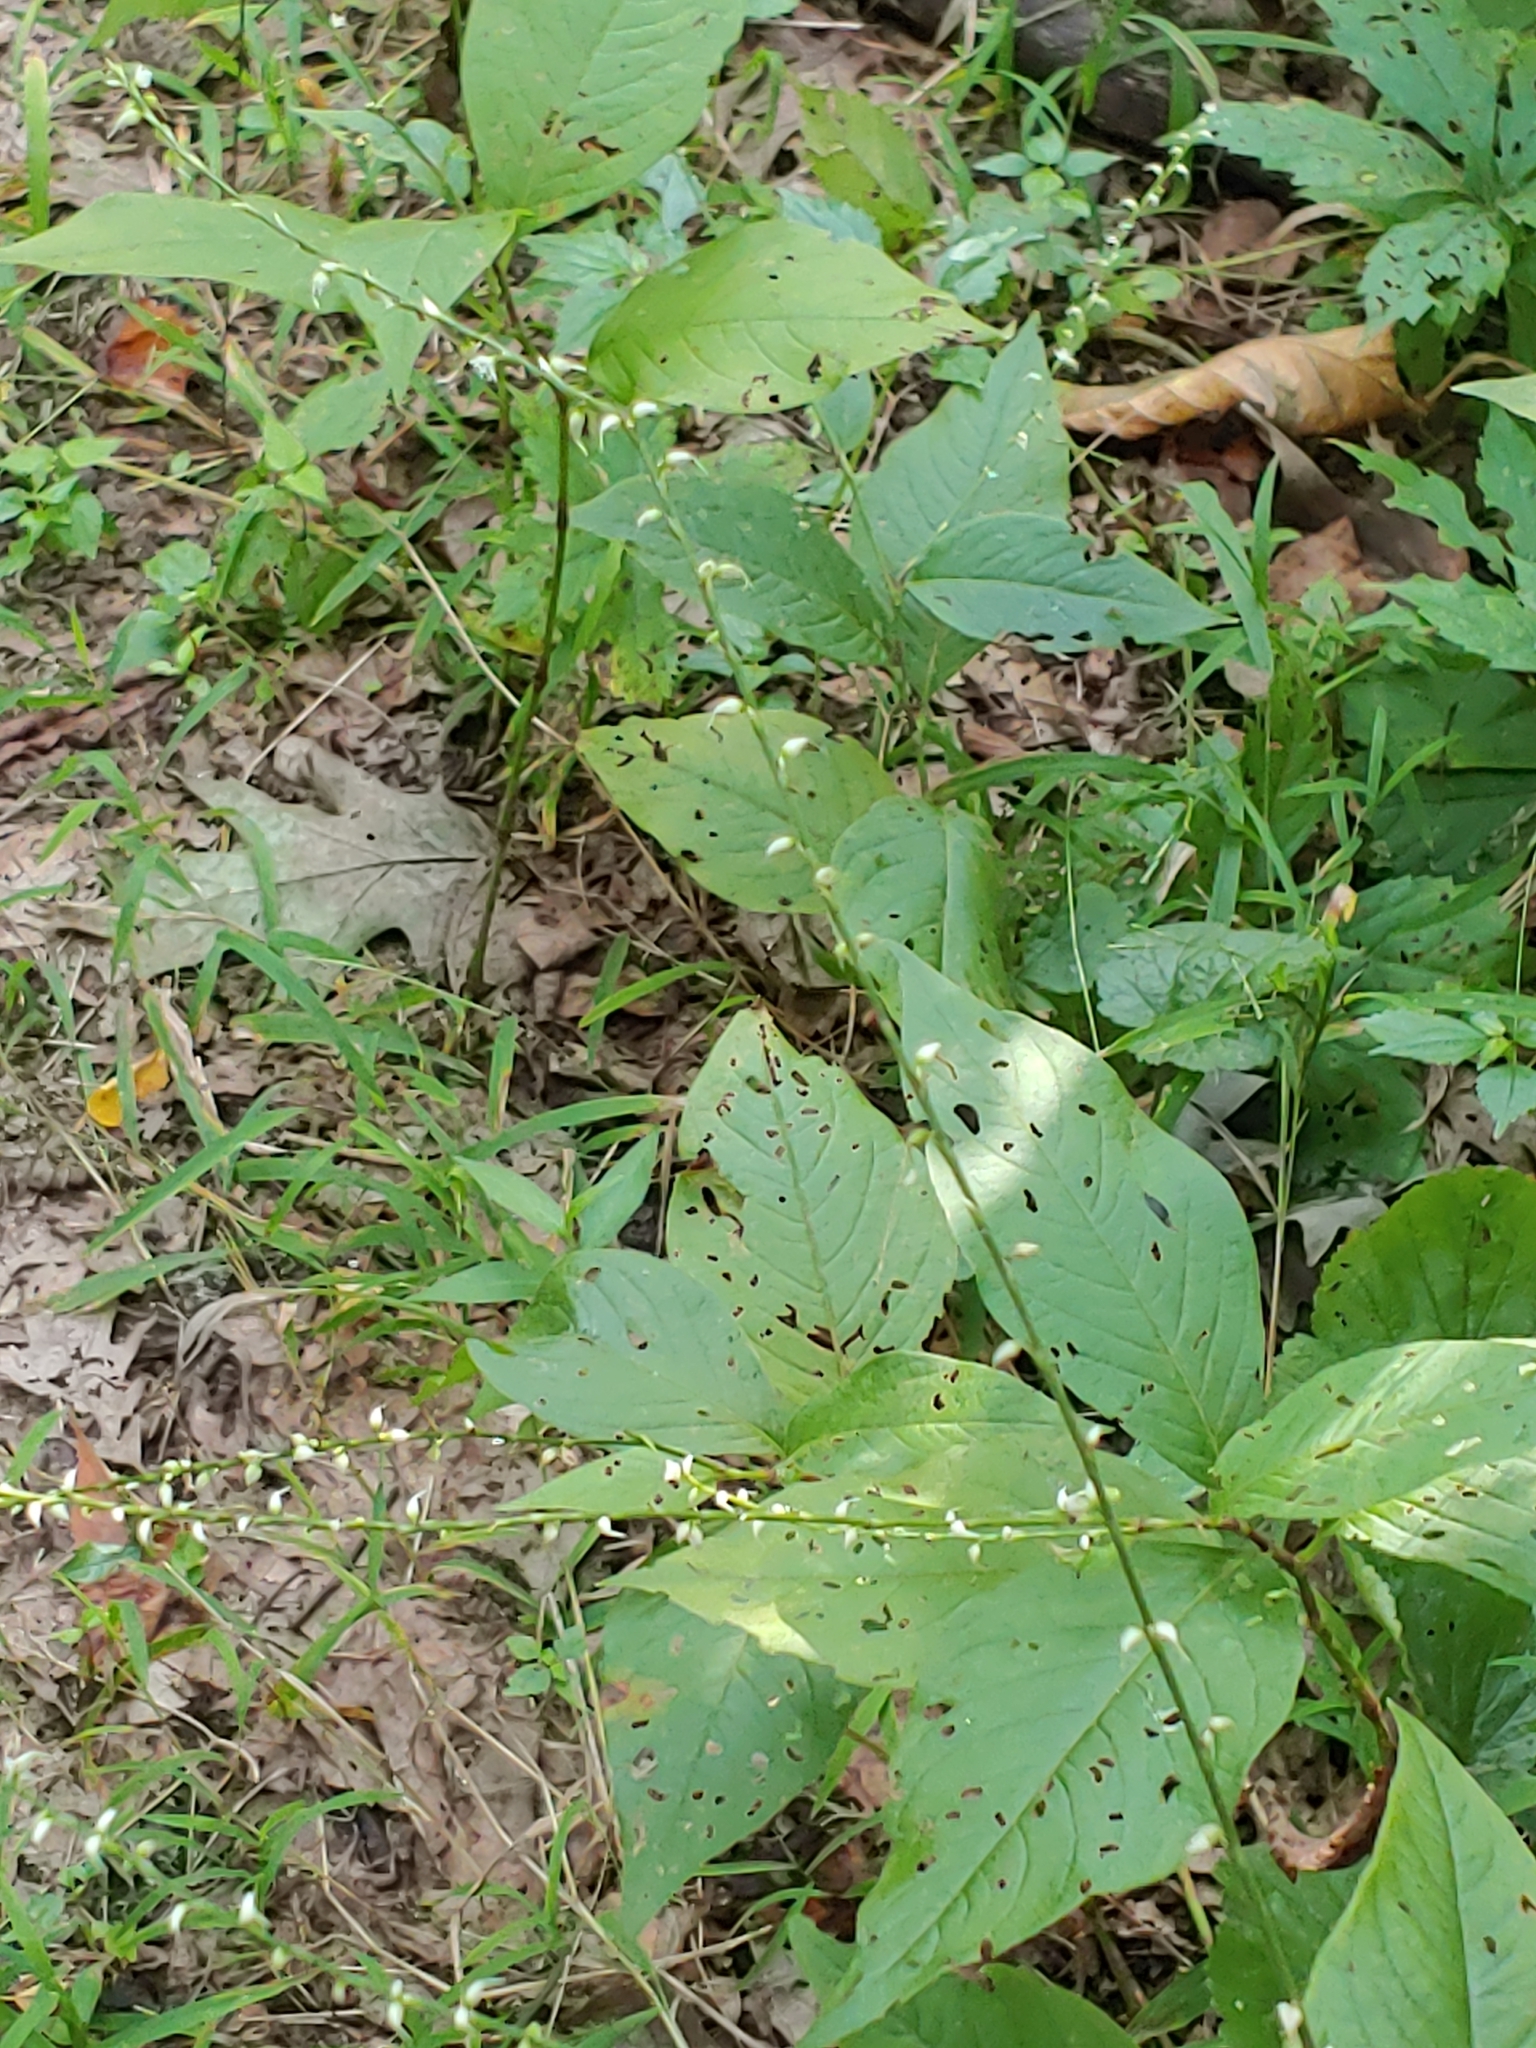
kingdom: Plantae
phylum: Tracheophyta
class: Magnoliopsida
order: Caryophyllales
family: Polygonaceae
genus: Persicaria
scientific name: Persicaria virginiana
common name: Jumpseed
